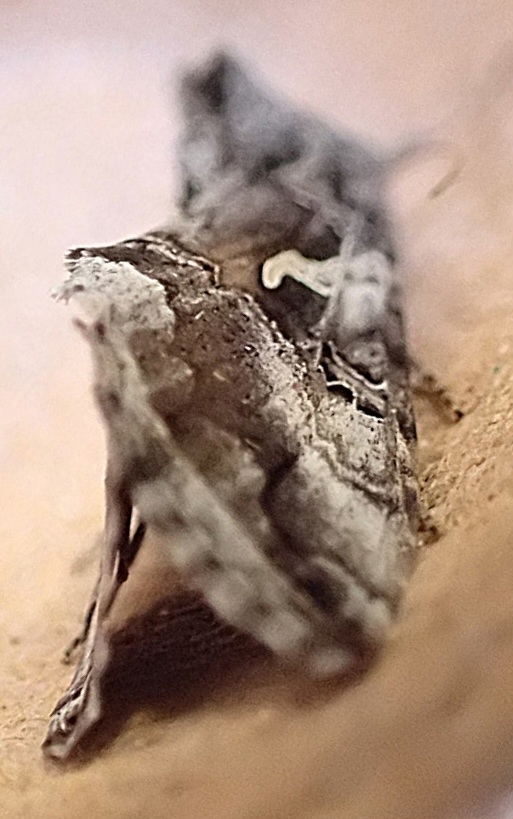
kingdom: Animalia
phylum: Arthropoda
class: Insecta
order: Lepidoptera
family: Noctuidae
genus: Autographa
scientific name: Autographa gamma
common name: Silver y
